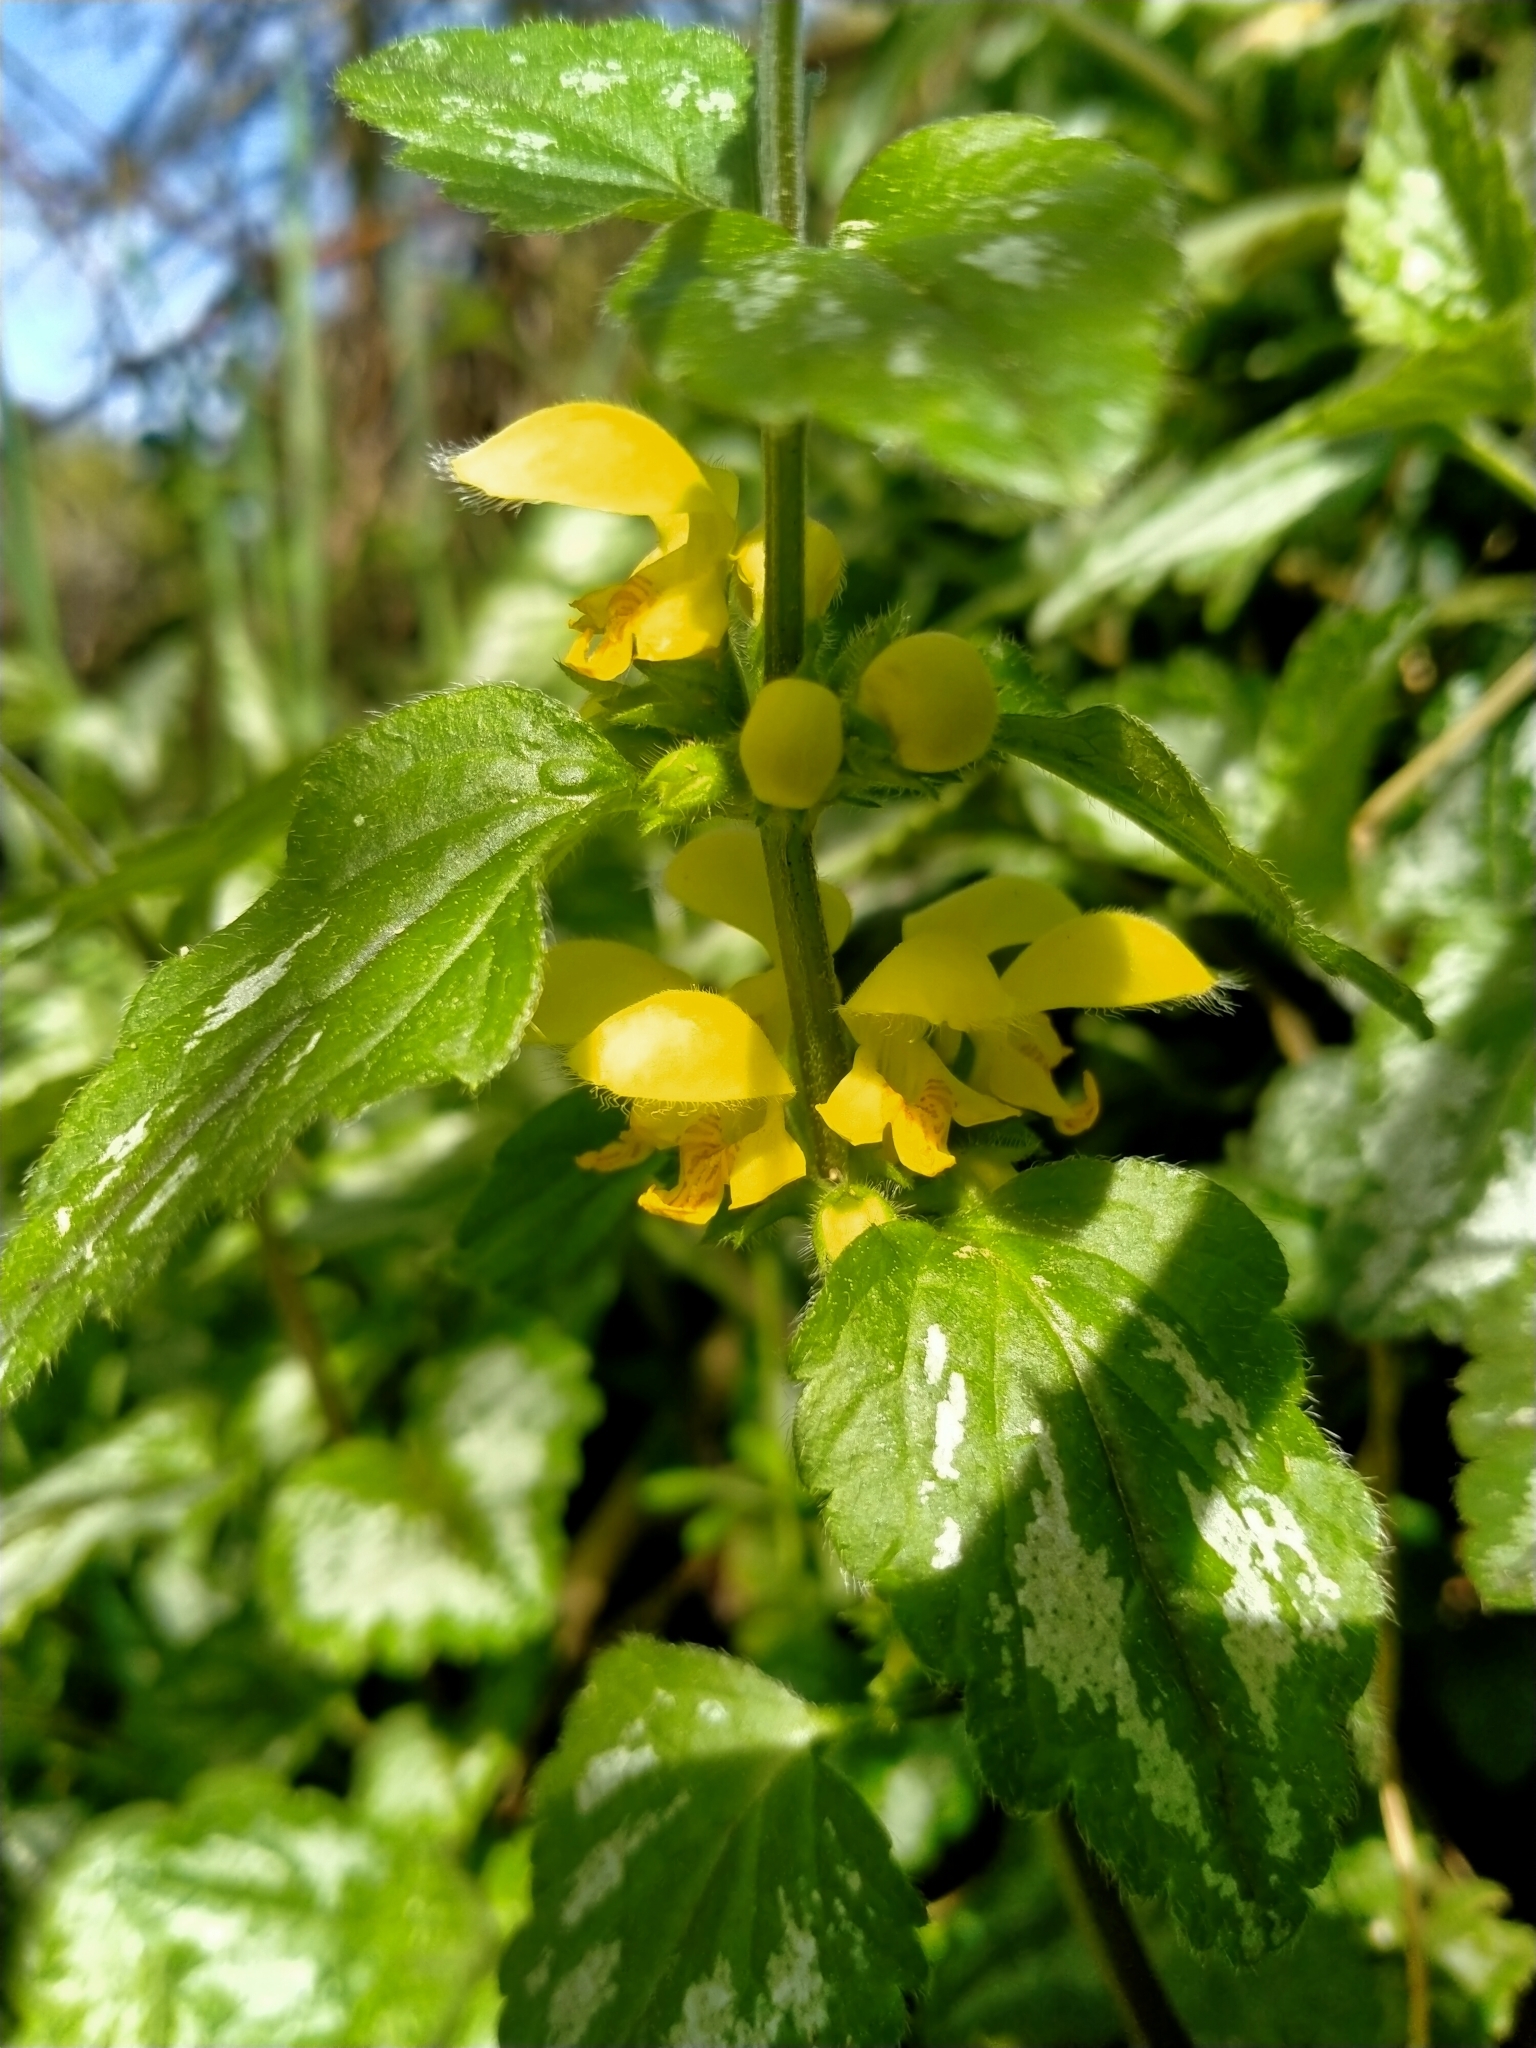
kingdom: Plantae
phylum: Tracheophyta
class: Magnoliopsida
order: Lamiales
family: Lamiaceae
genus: Lamium
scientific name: Lamium galeobdolon
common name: Yellow archangel
